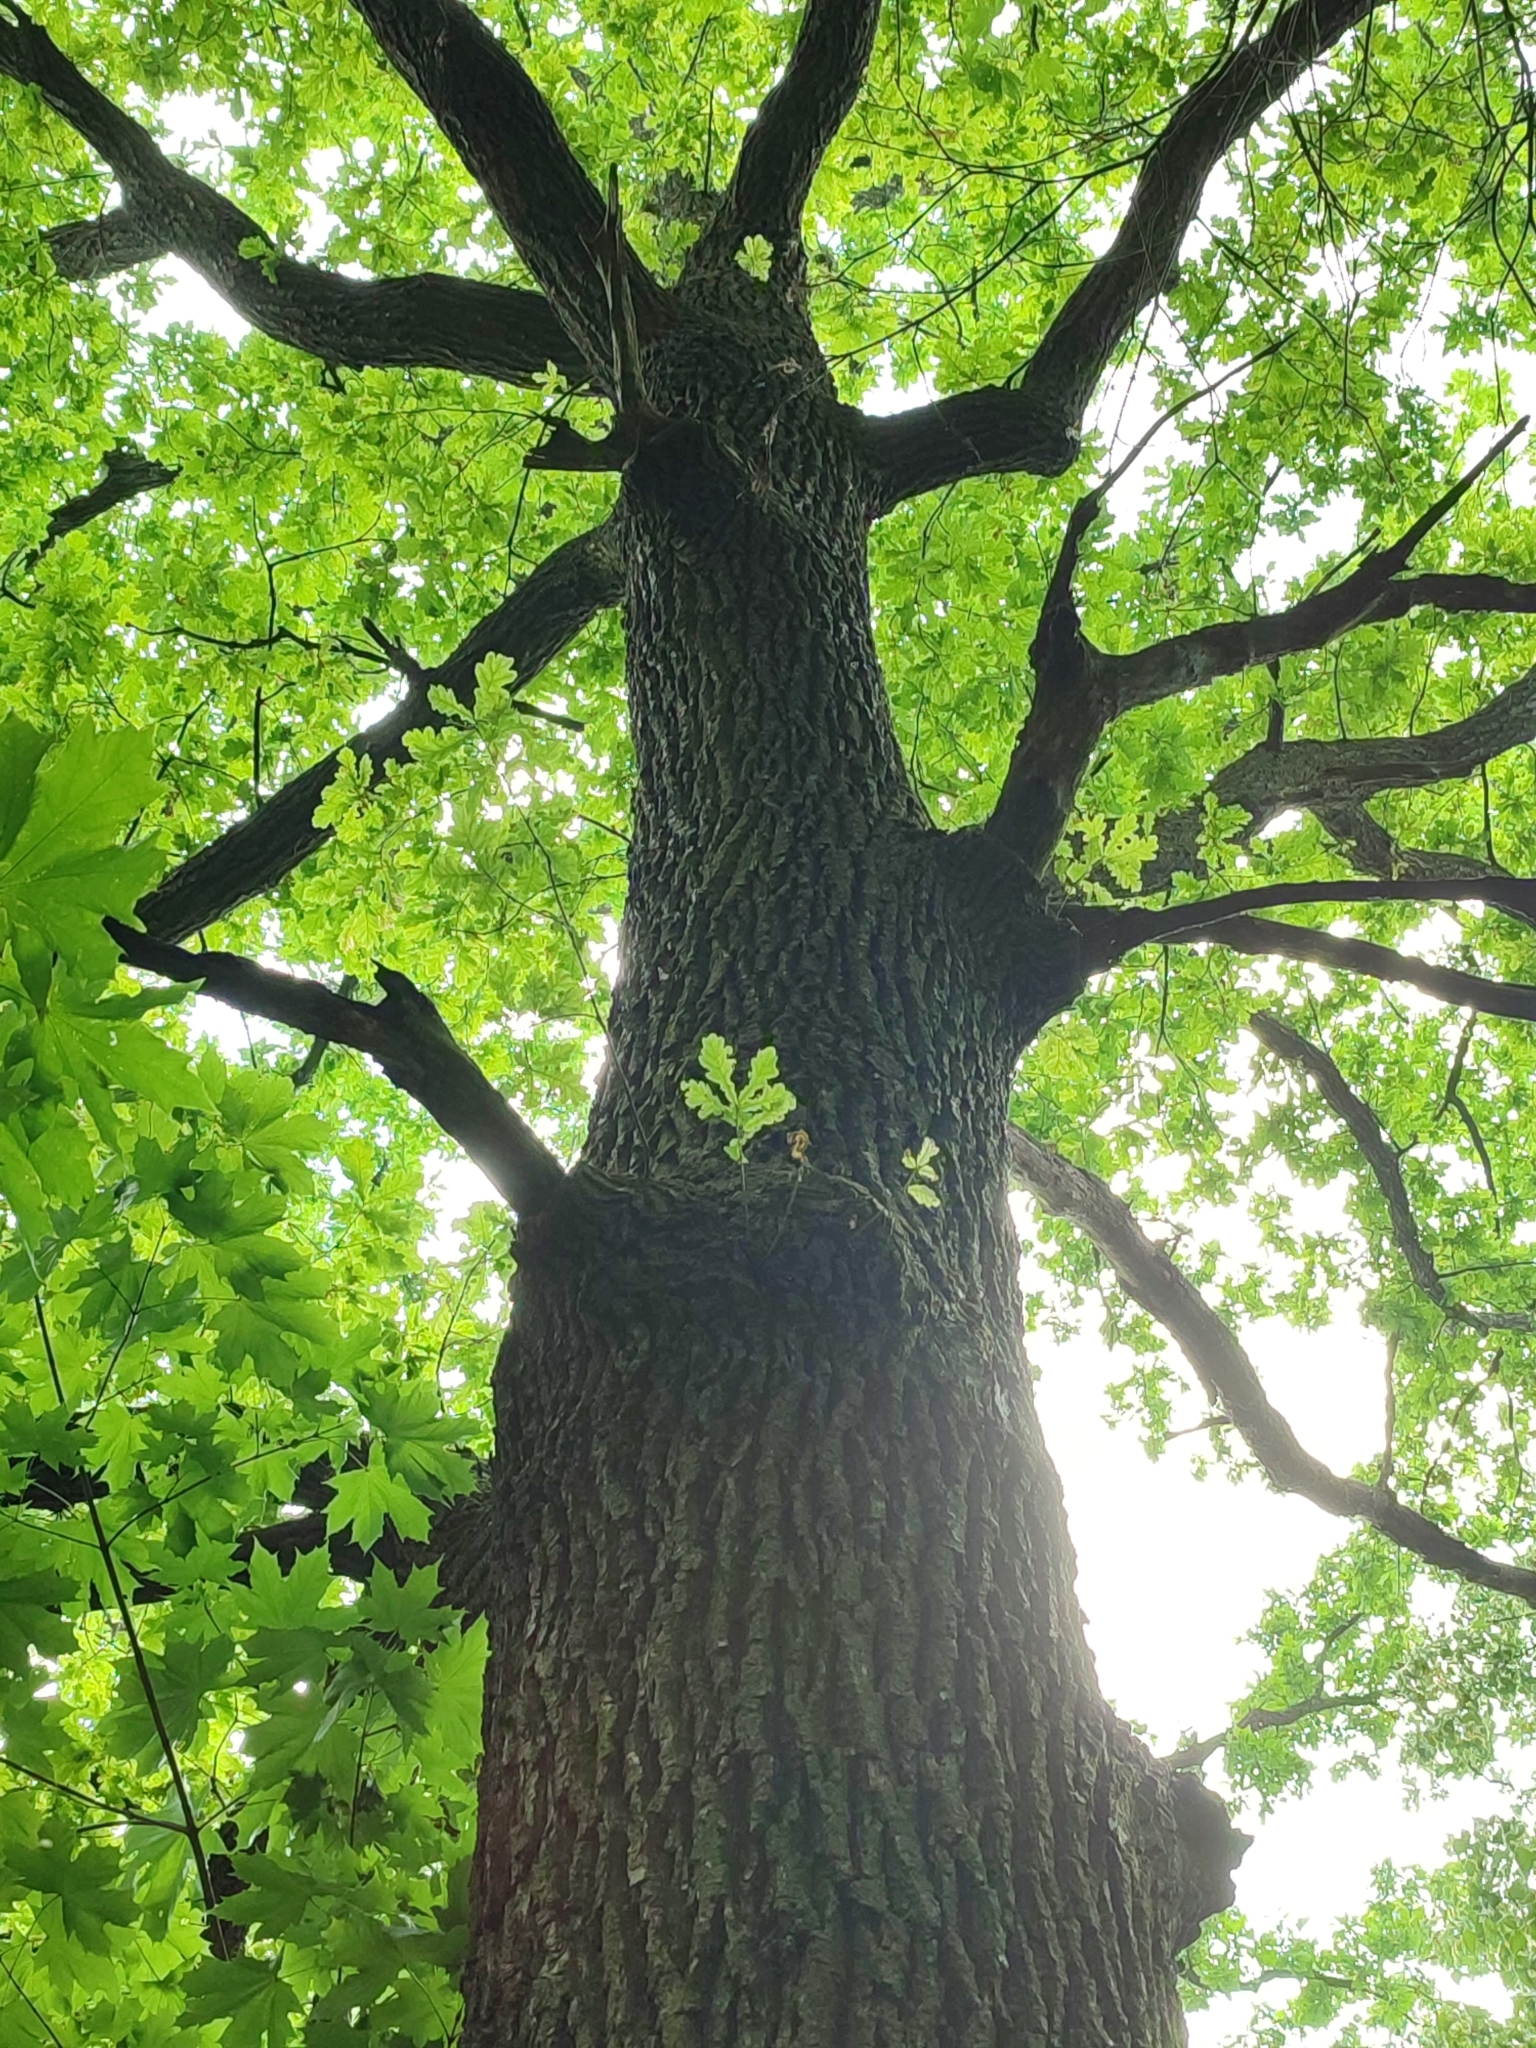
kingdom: Plantae
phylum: Tracheophyta
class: Magnoliopsida
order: Fagales
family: Fagaceae
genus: Quercus
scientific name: Quercus robur
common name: Pedunculate oak
